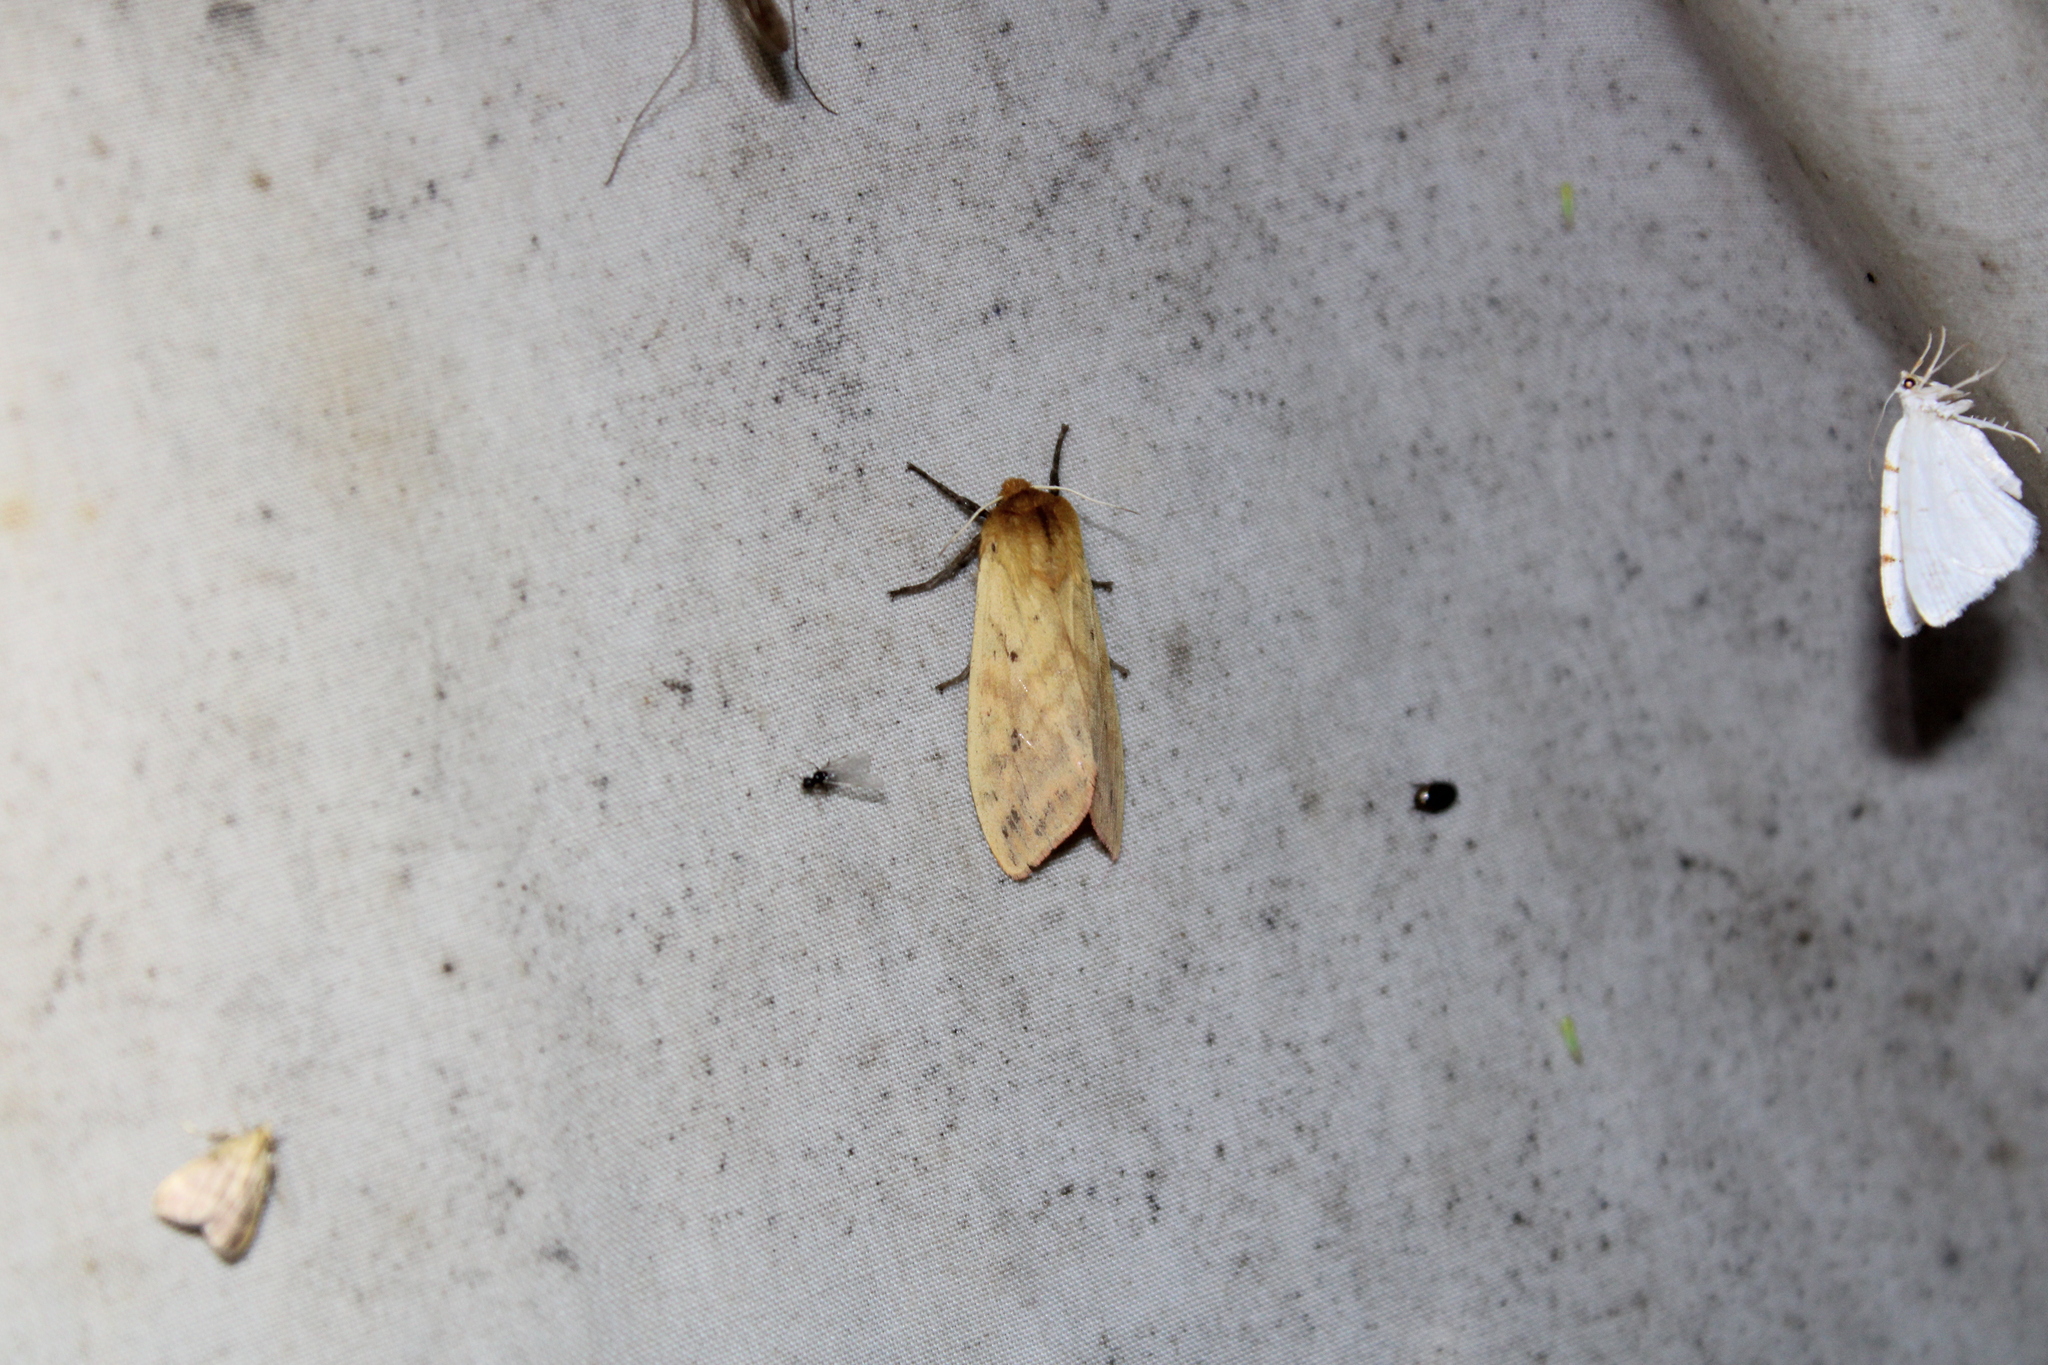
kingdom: Animalia
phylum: Arthropoda
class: Insecta
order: Lepidoptera
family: Erebidae
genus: Pyrrharctia
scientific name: Pyrrharctia isabella
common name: Isabella tiger moth
